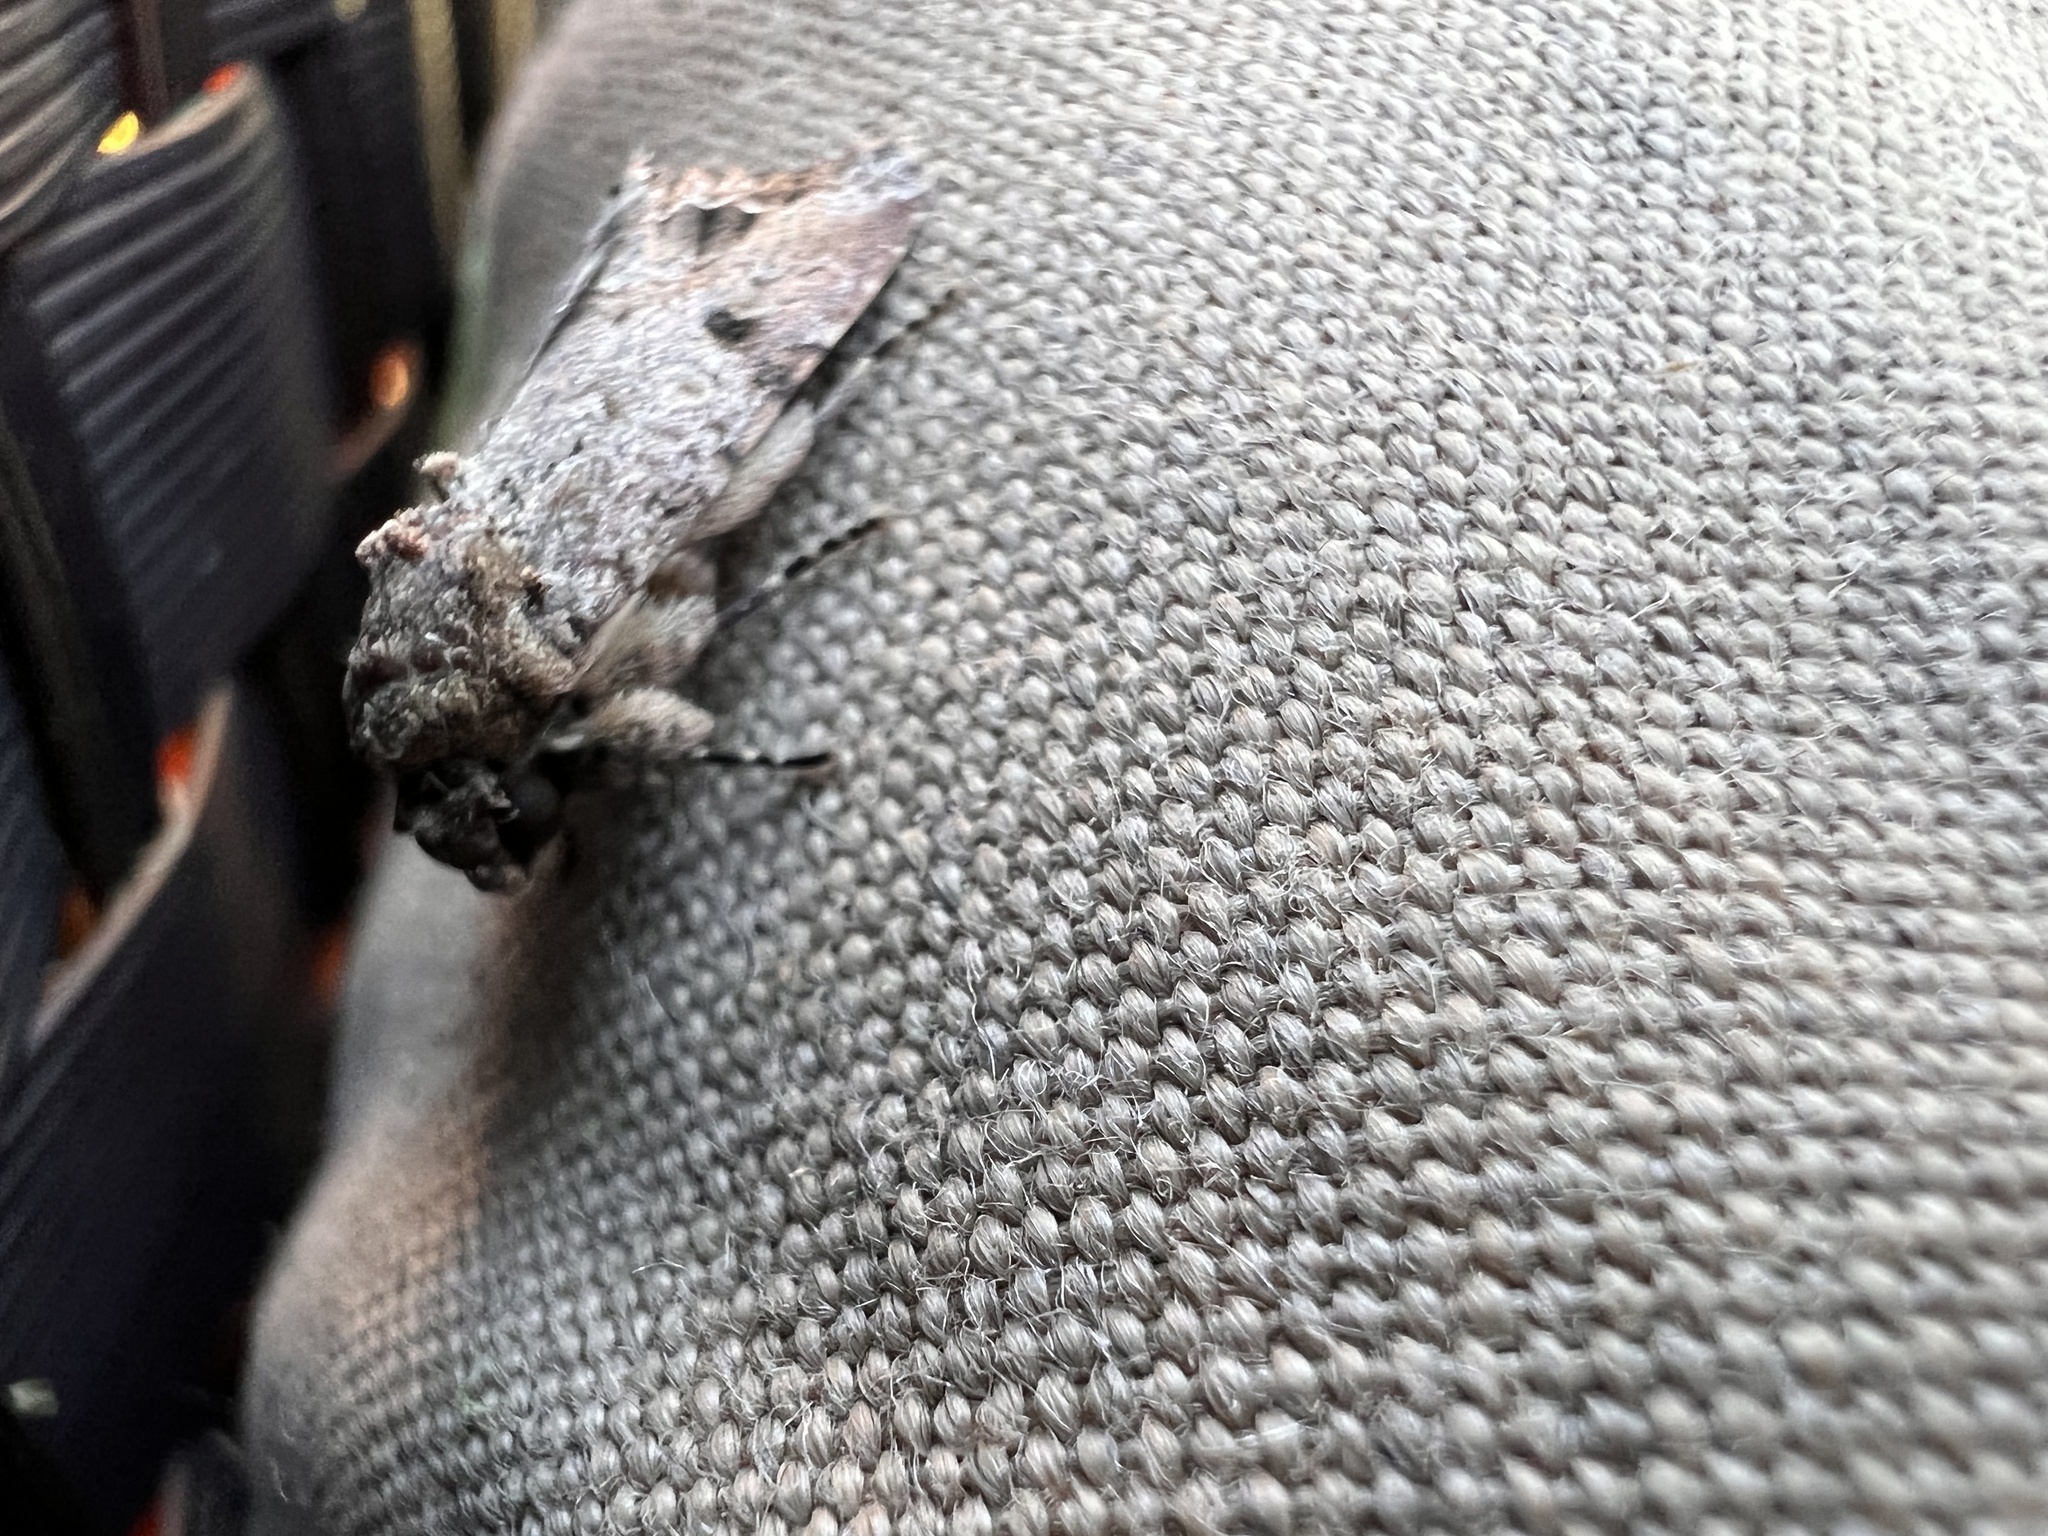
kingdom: Animalia
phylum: Arthropoda
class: Insecta
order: Lepidoptera
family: Noctuidae
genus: Spodoptera
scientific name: Spodoptera mauritia
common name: Lawn armyworm
